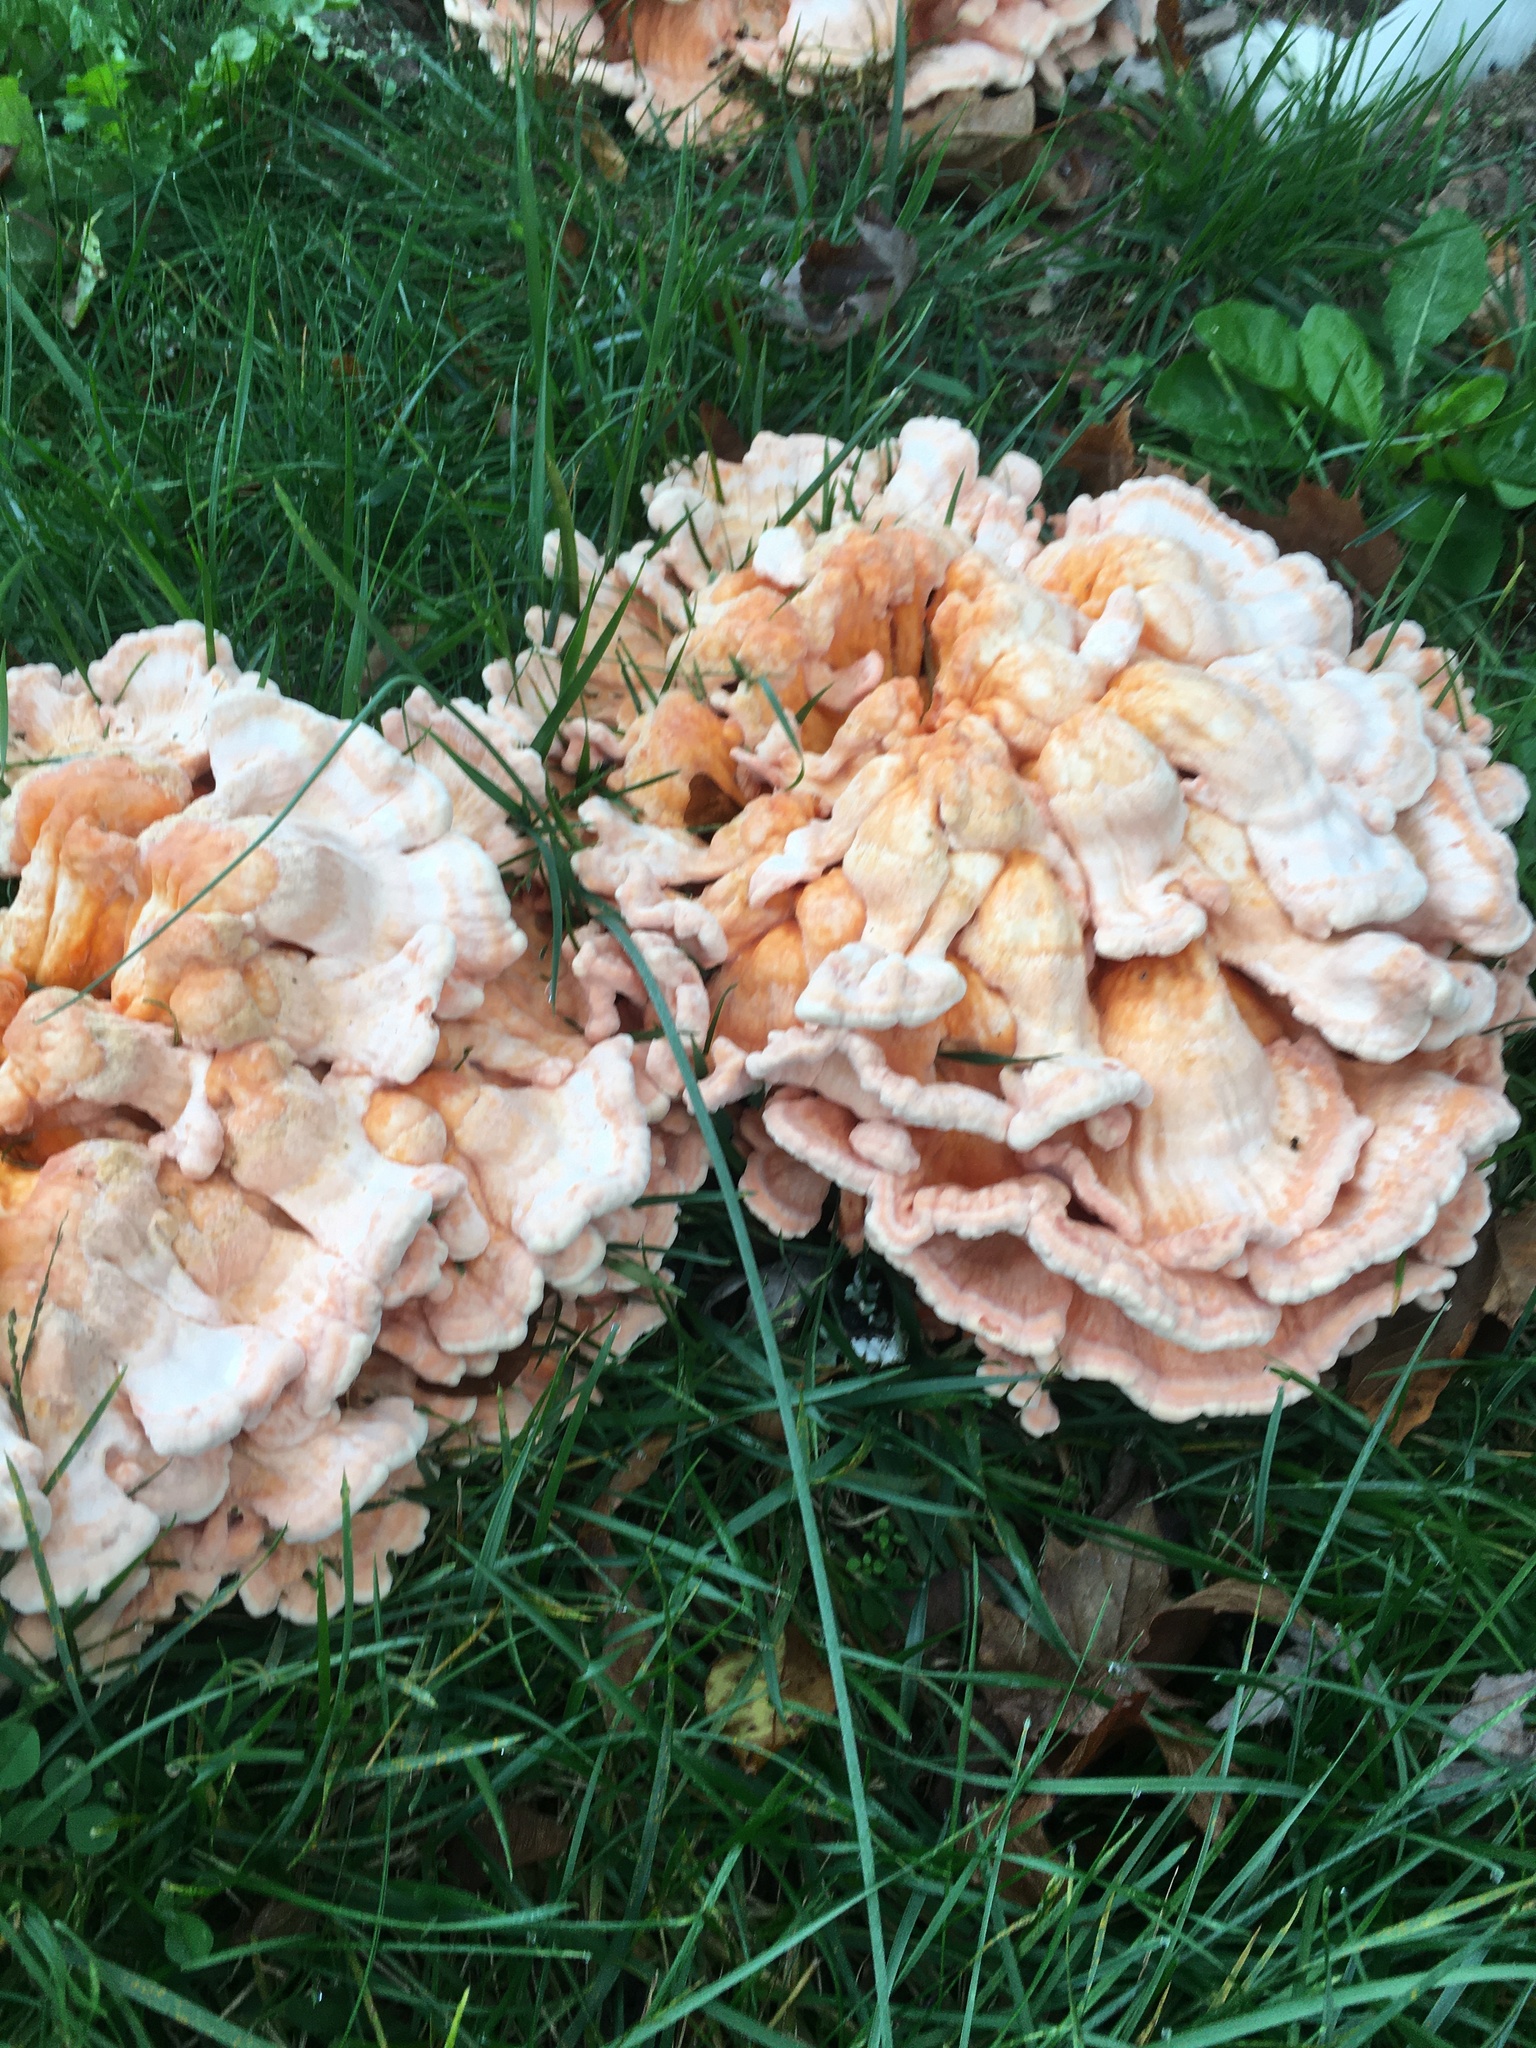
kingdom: Fungi
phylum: Basidiomycota
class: Agaricomycetes
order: Polyporales
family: Laetiporaceae
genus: Laetiporus
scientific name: Laetiporus sulphureus
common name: Chicken of the woods
